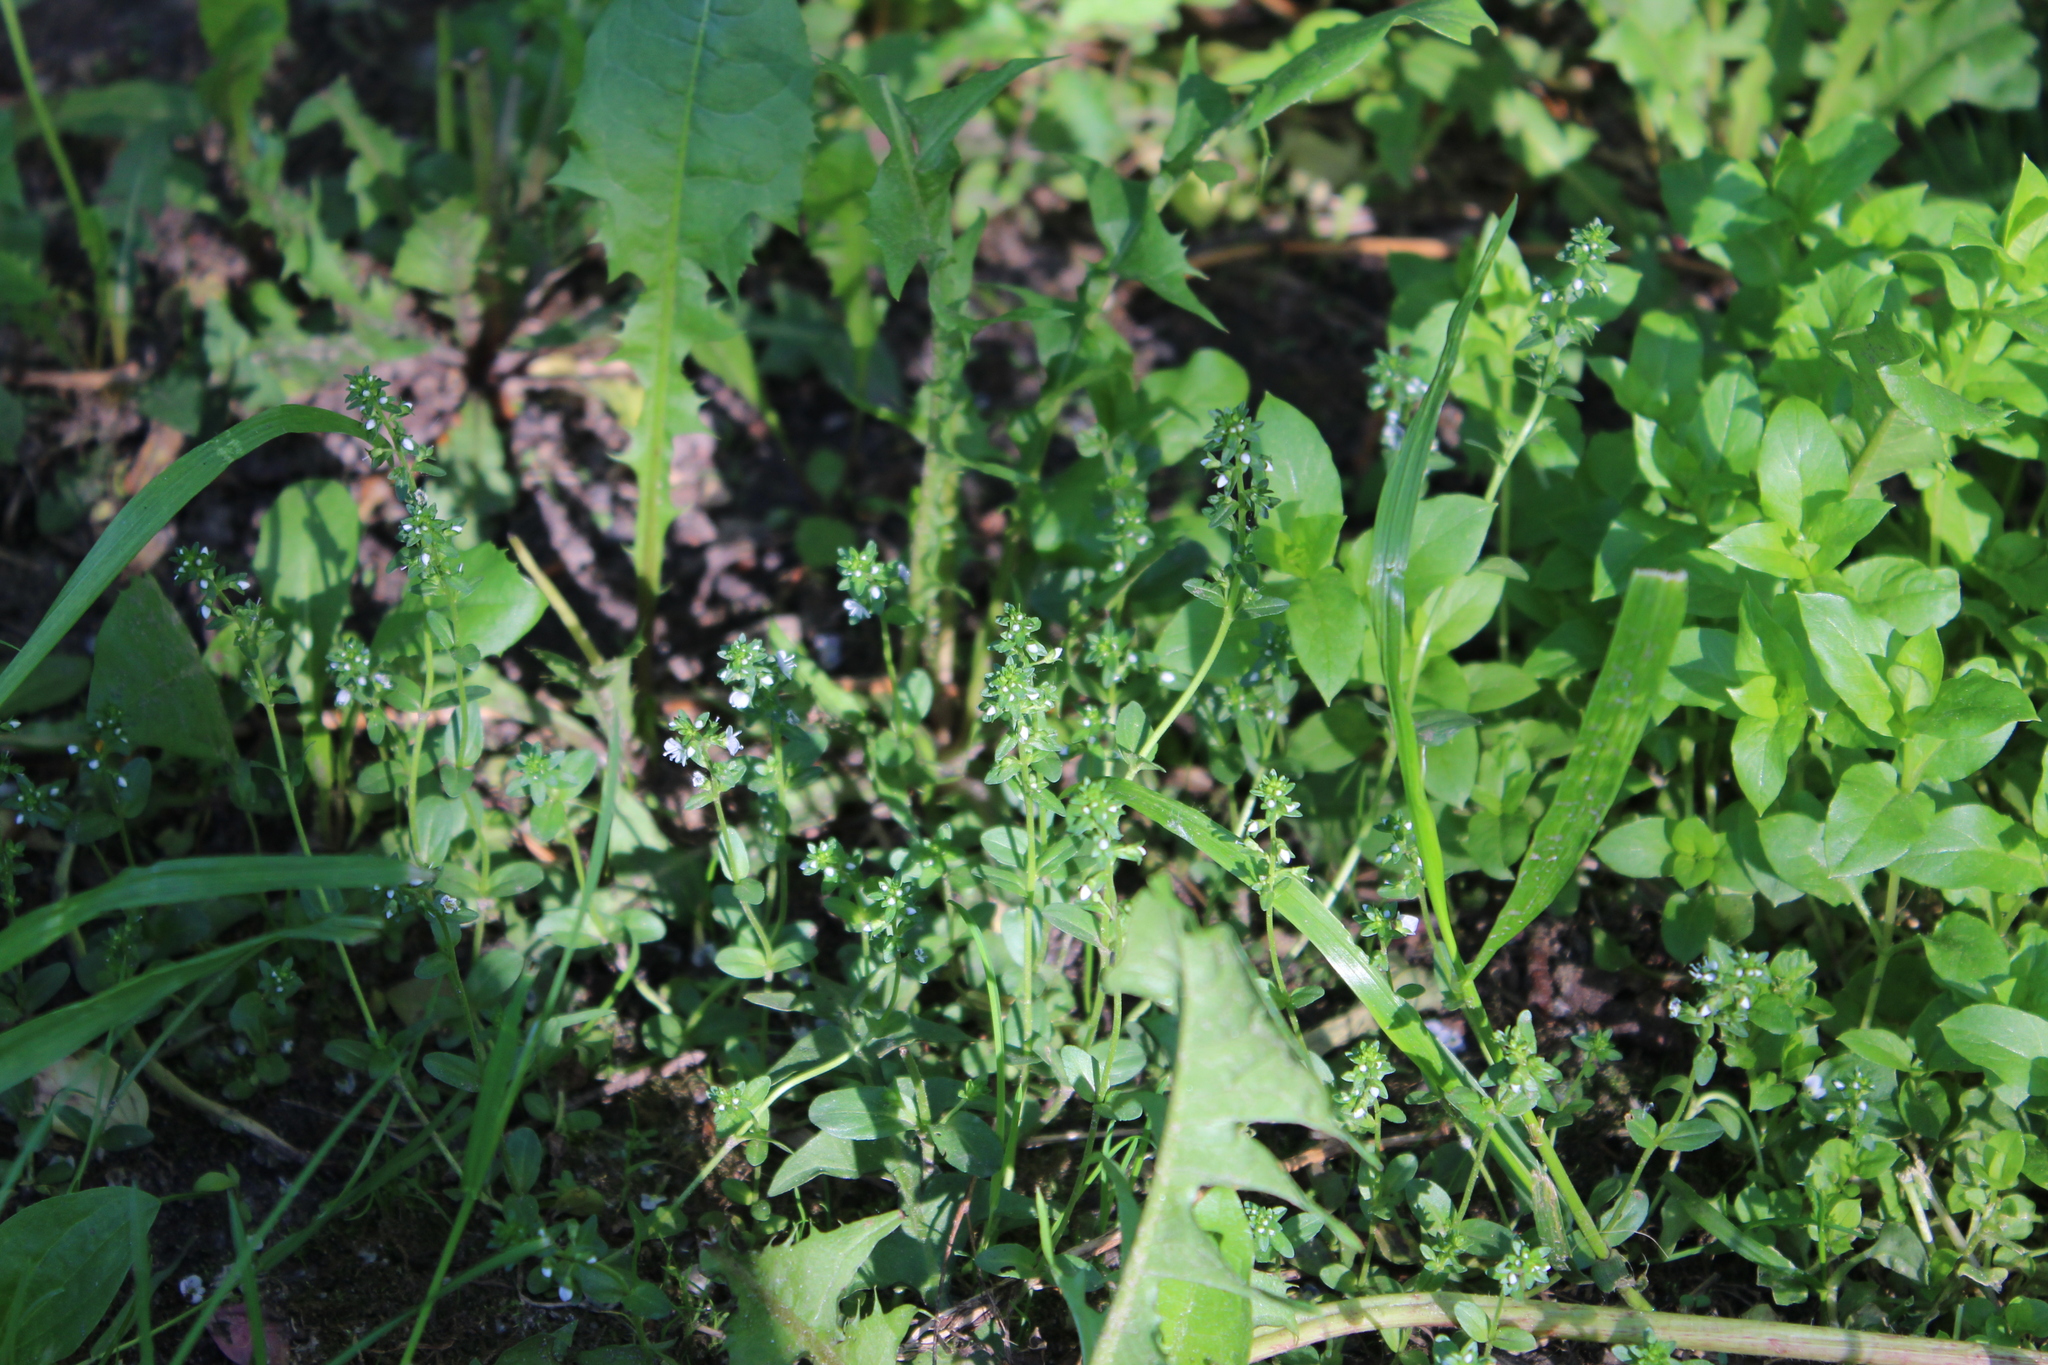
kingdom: Plantae
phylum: Tracheophyta
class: Magnoliopsida
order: Lamiales
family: Plantaginaceae
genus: Veronica
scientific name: Veronica serpyllifolia
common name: Thyme-leaved speedwell
